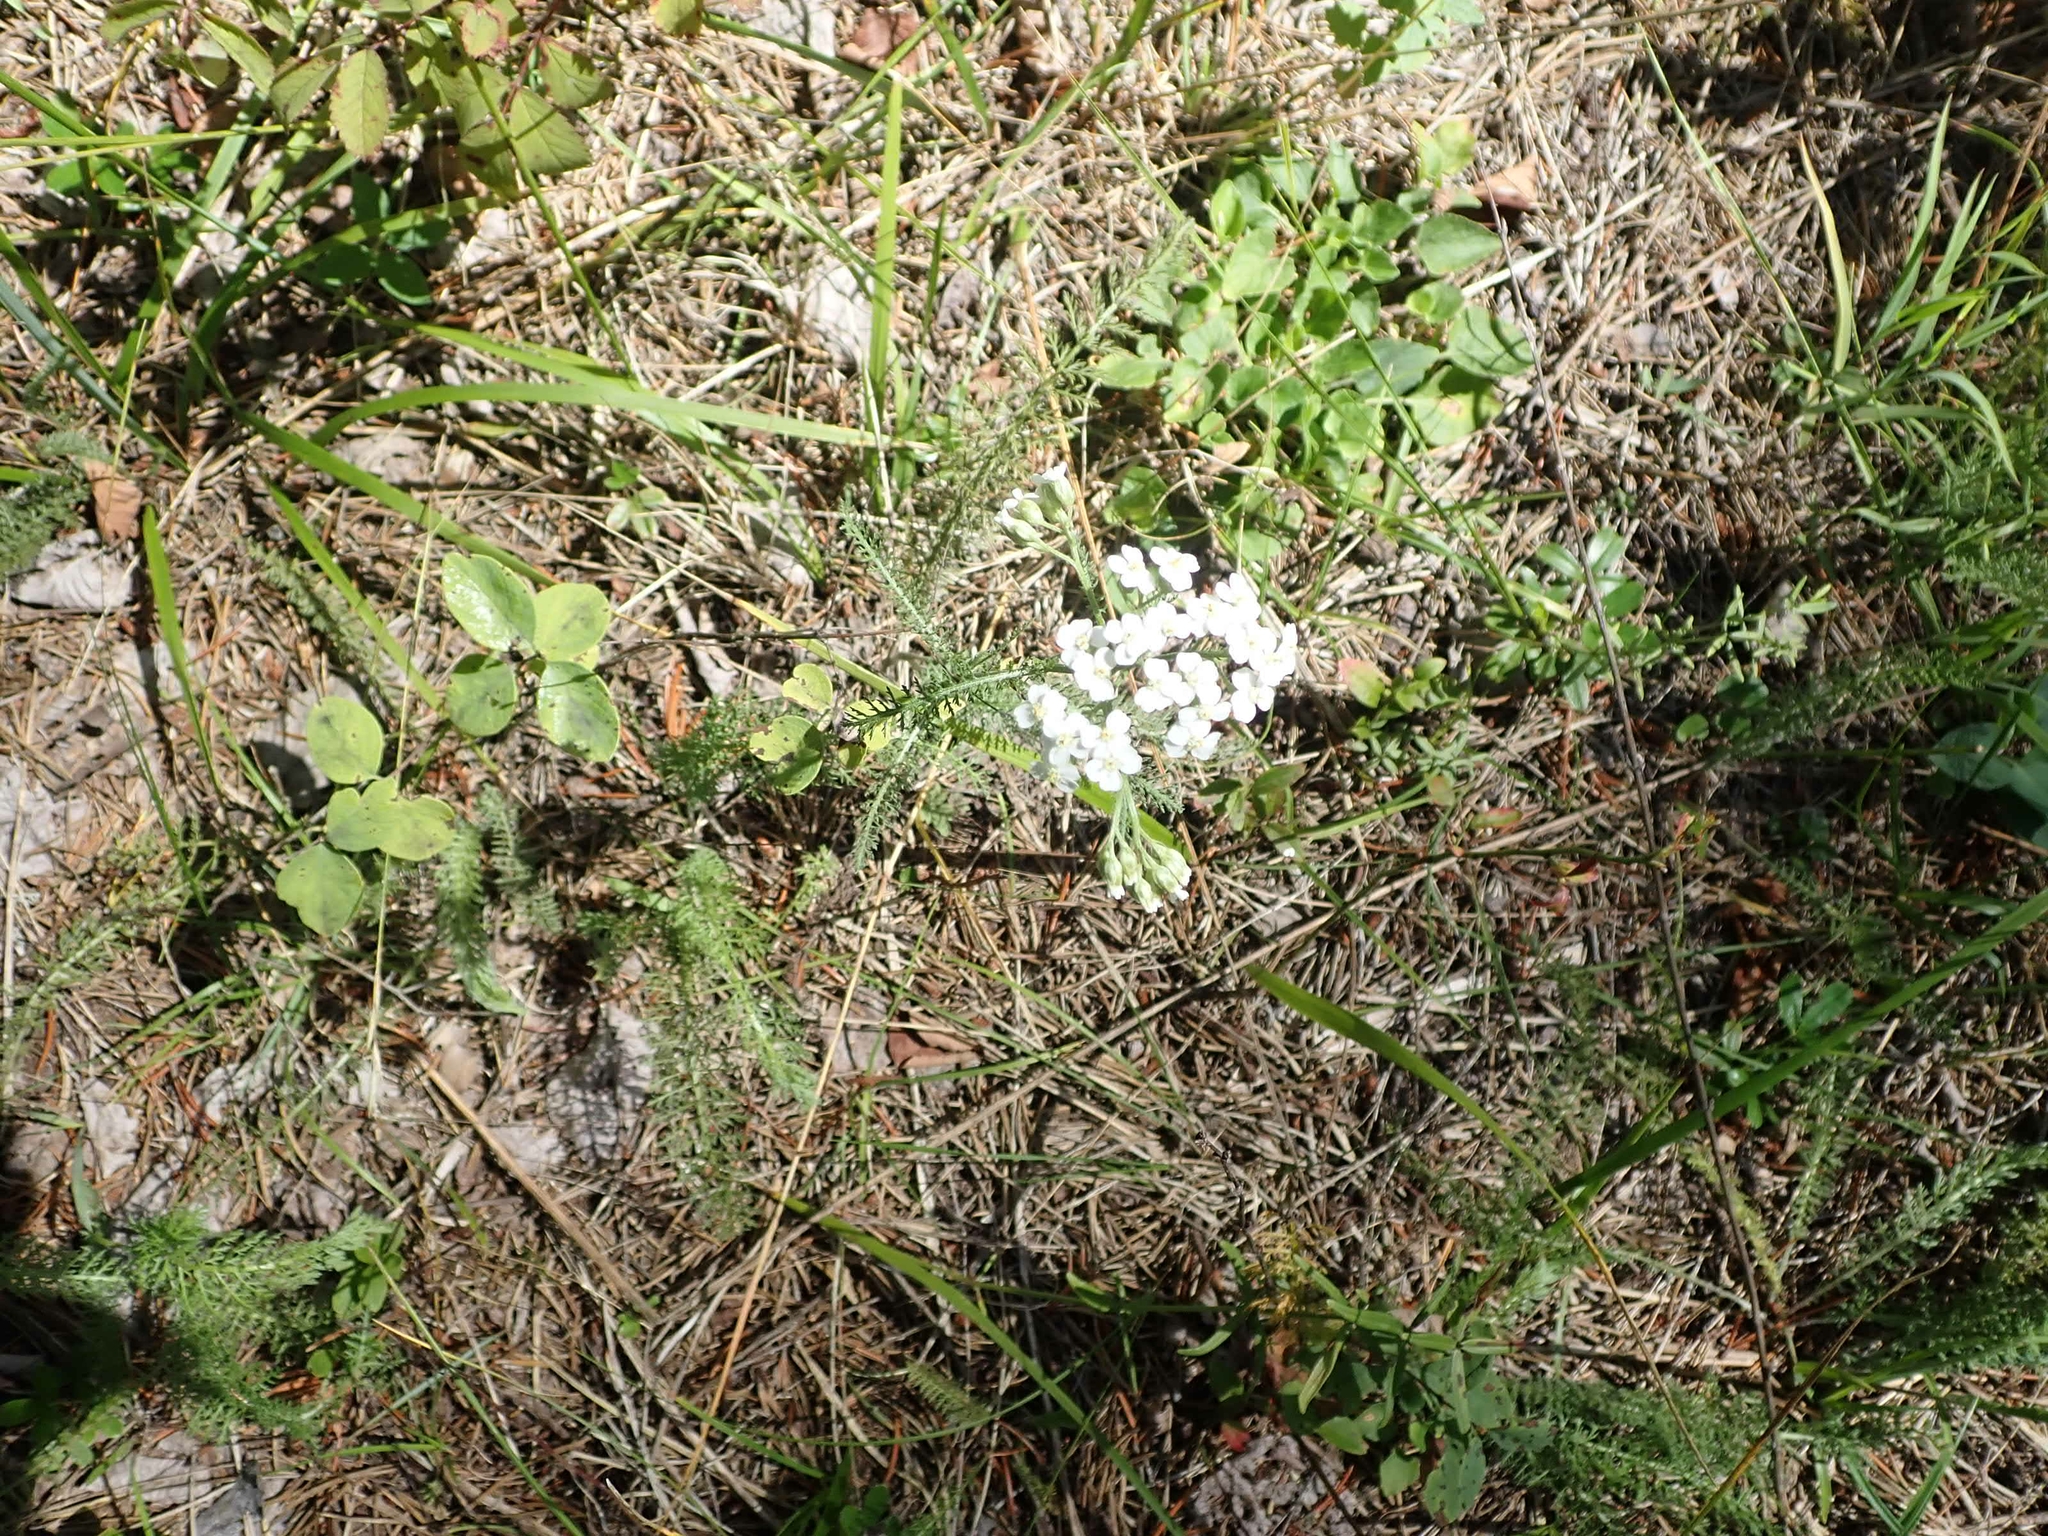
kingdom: Plantae
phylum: Tracheophyta
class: Magnoliopsida
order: Asterales
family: Asteraceae
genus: Achillea
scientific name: Achillea millefolium
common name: Yarrow
